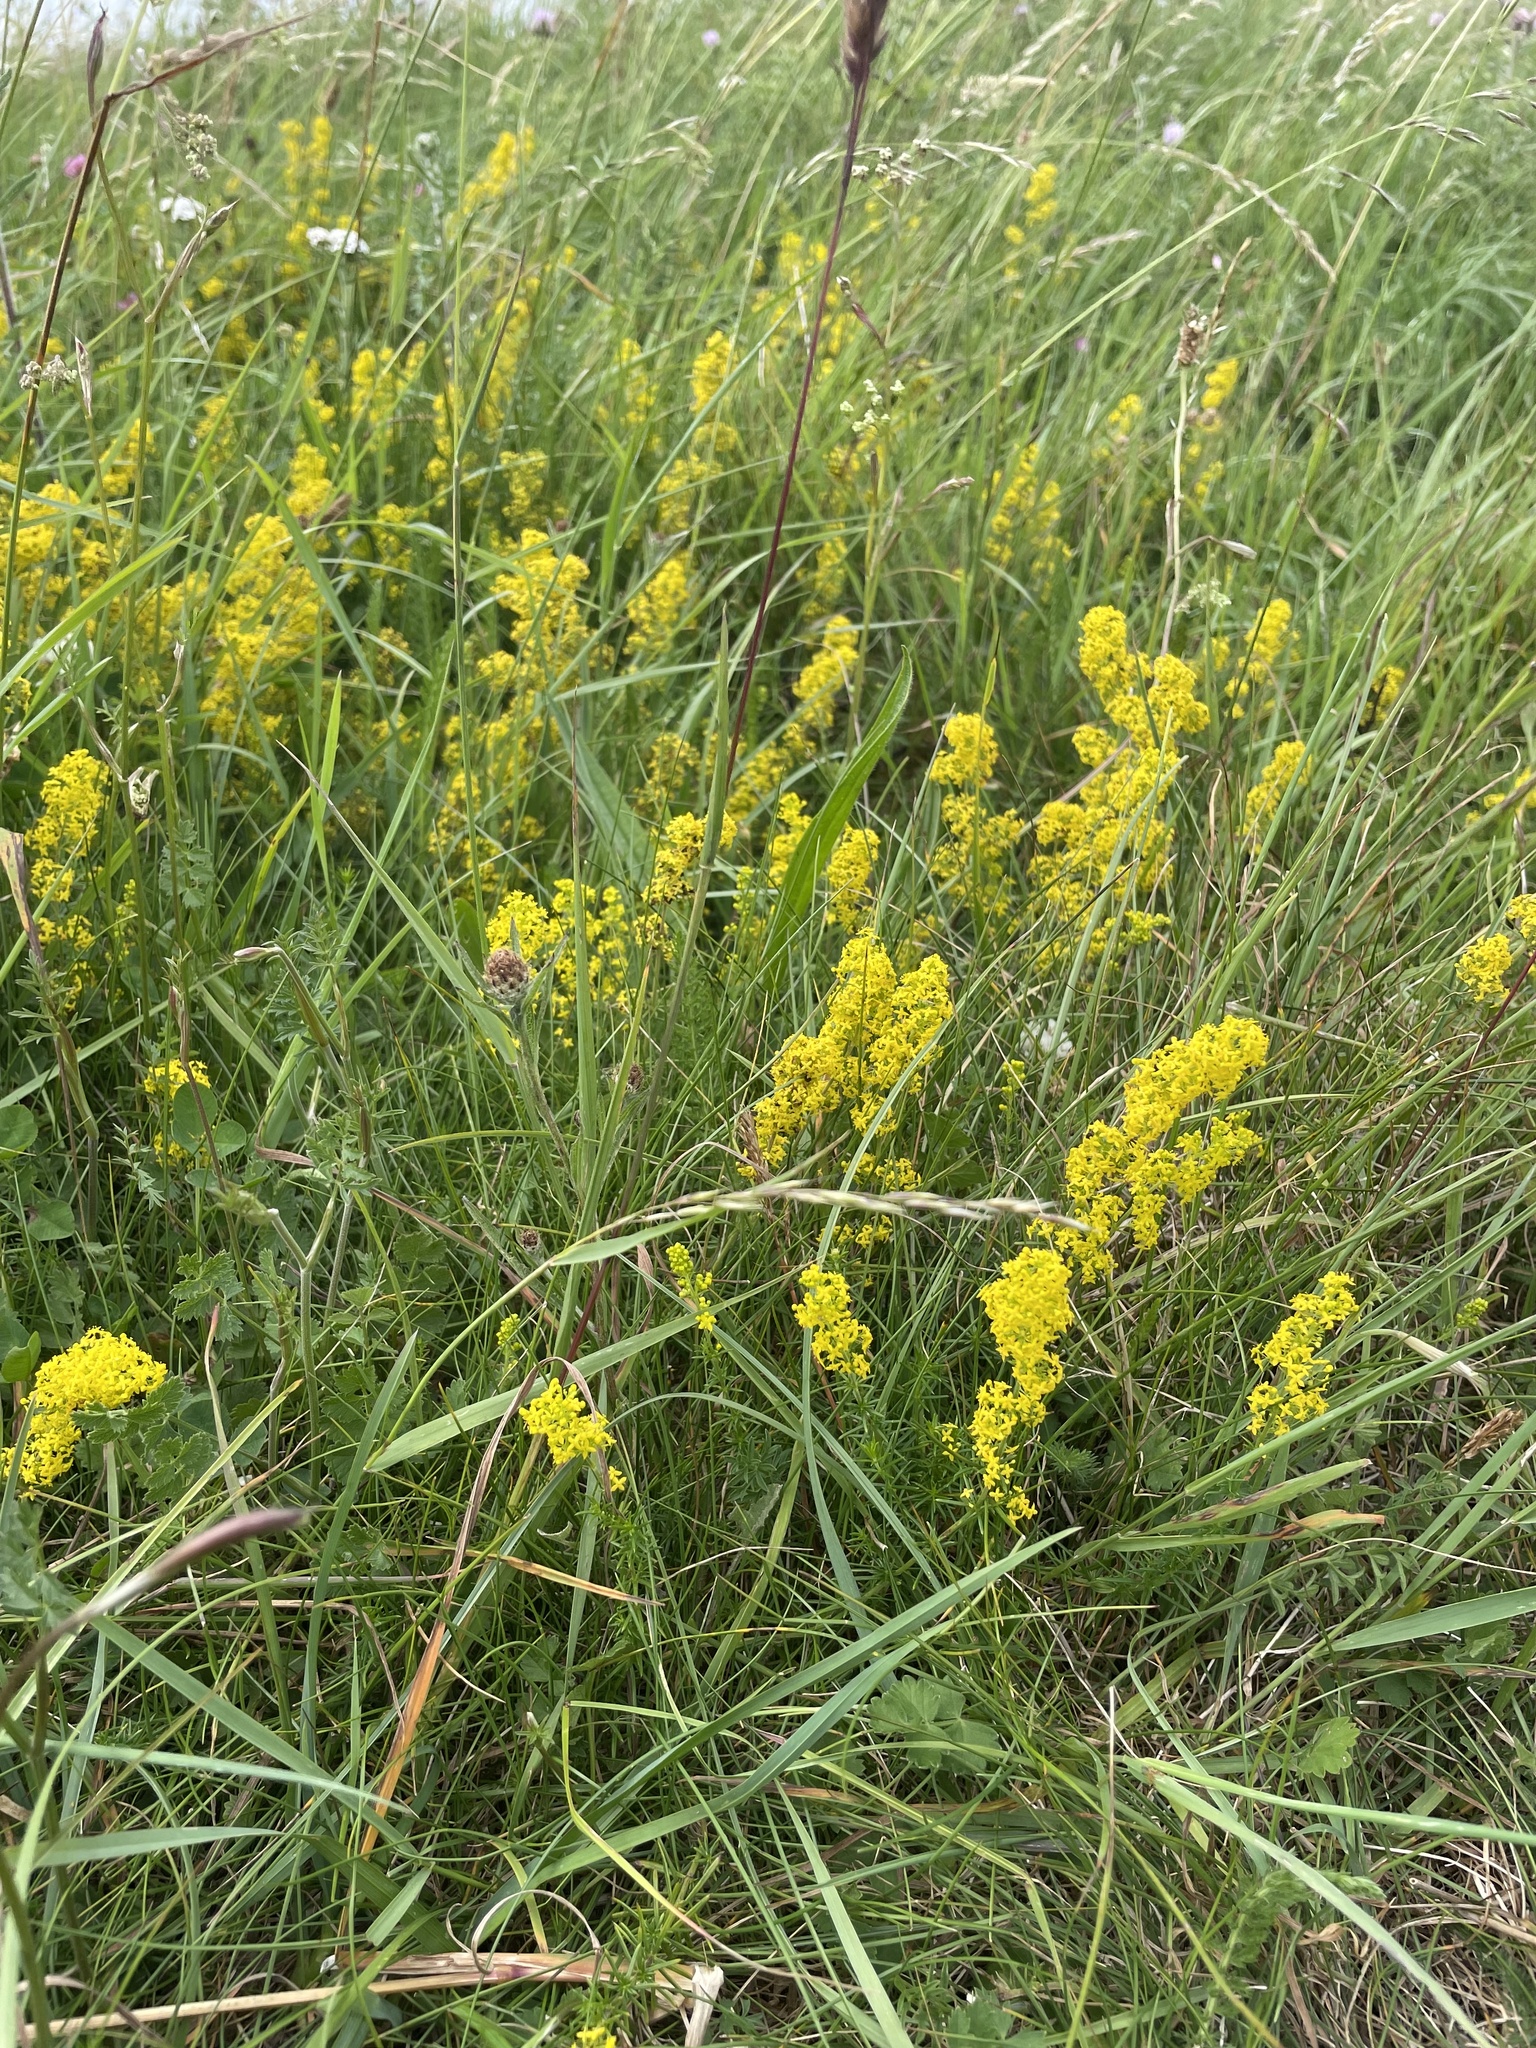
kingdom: Plantae
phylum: Tracheophyta
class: Magnoliopsida
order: Gentianales
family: Rubiaceae
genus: Galium
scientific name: Galium verum
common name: Lady's bedstraw
